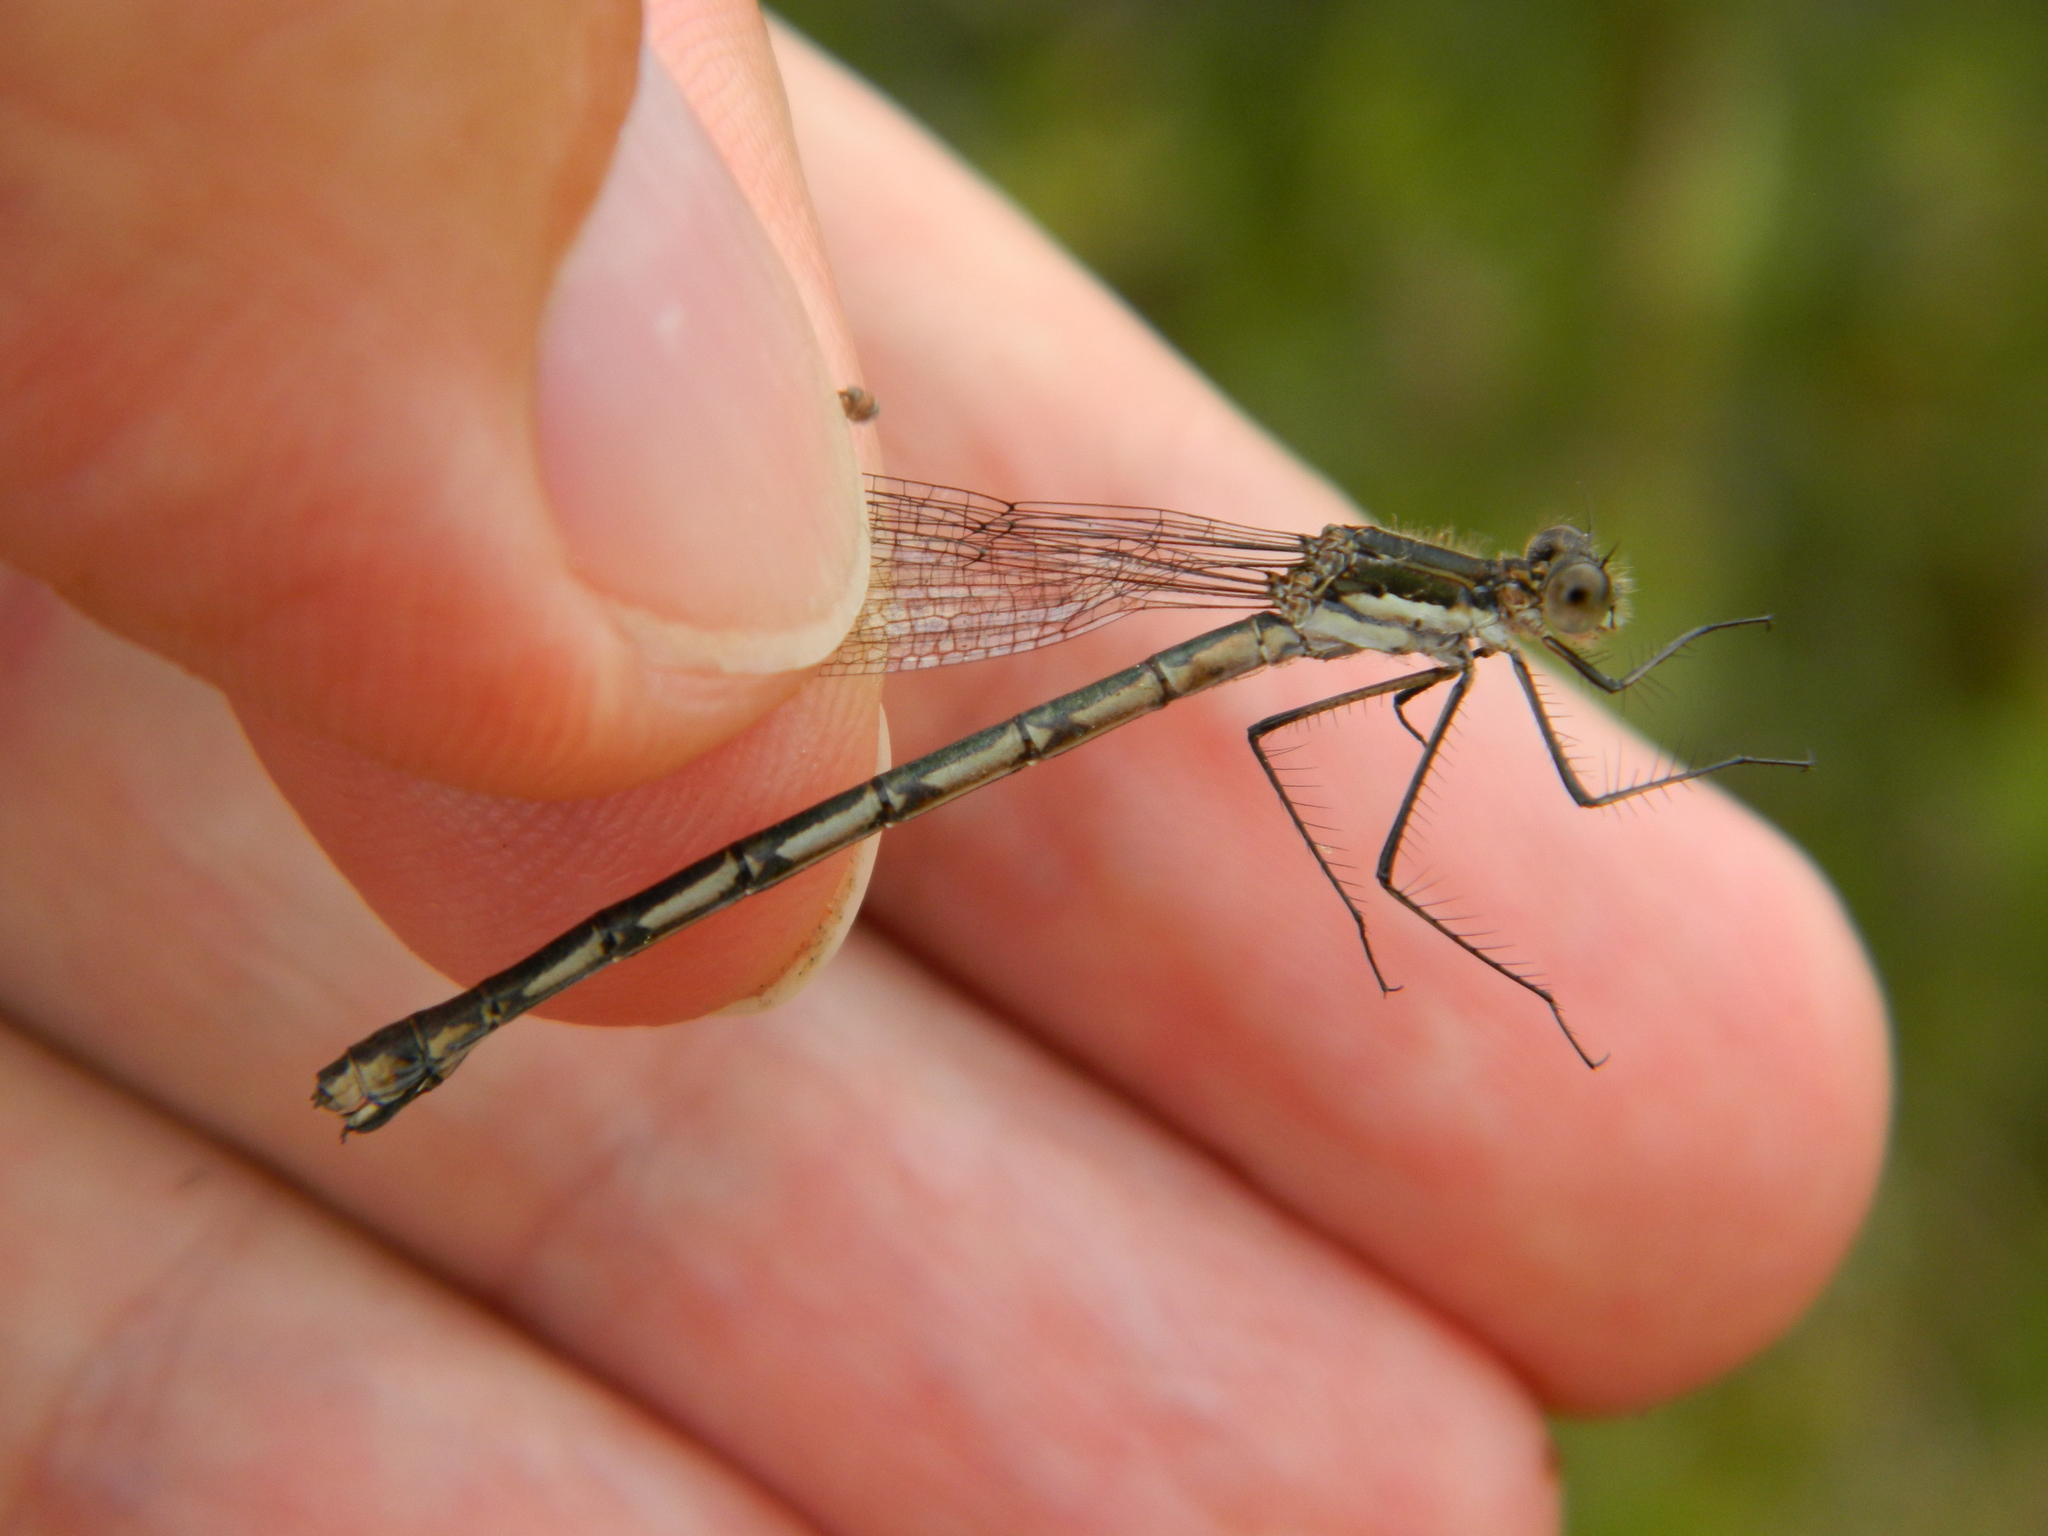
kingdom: Animalia
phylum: Arthropoda
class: Insecta
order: Odonata
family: Lestidae
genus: Lestes
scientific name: Lestes disjunctus
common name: Northern spreadwing
